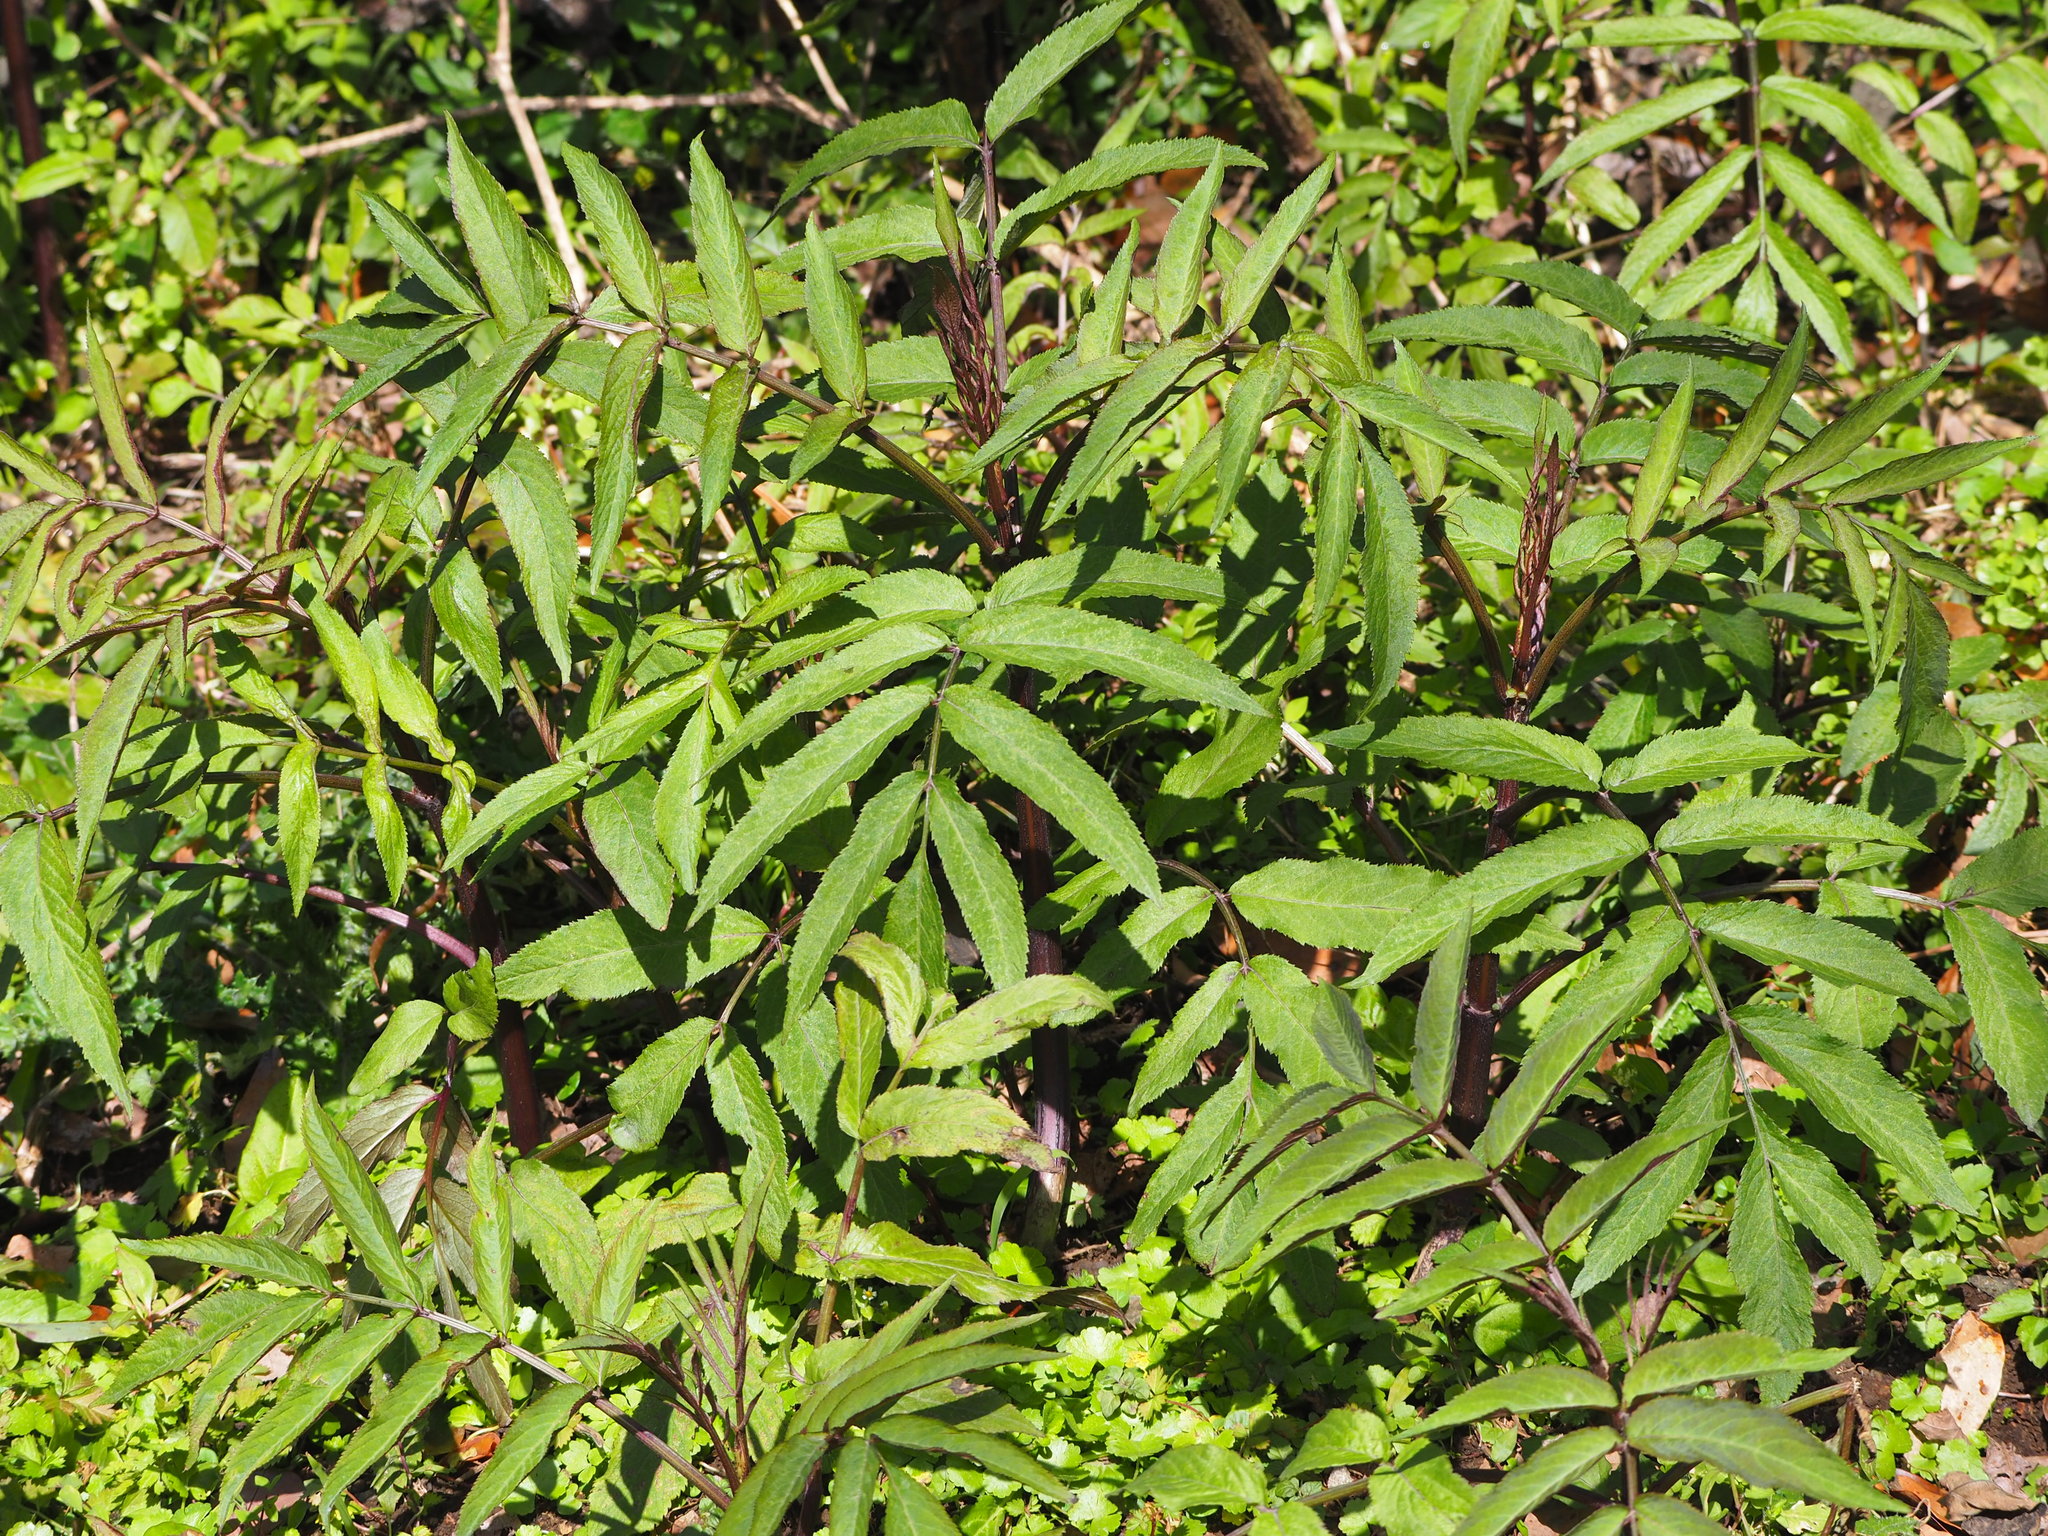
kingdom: Plantae
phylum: Tracheophyta
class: Magnoliopsida
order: Dipsacales
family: Viburnaceae
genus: Sambucus
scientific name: Sambucus javanica
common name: Chinese elder
